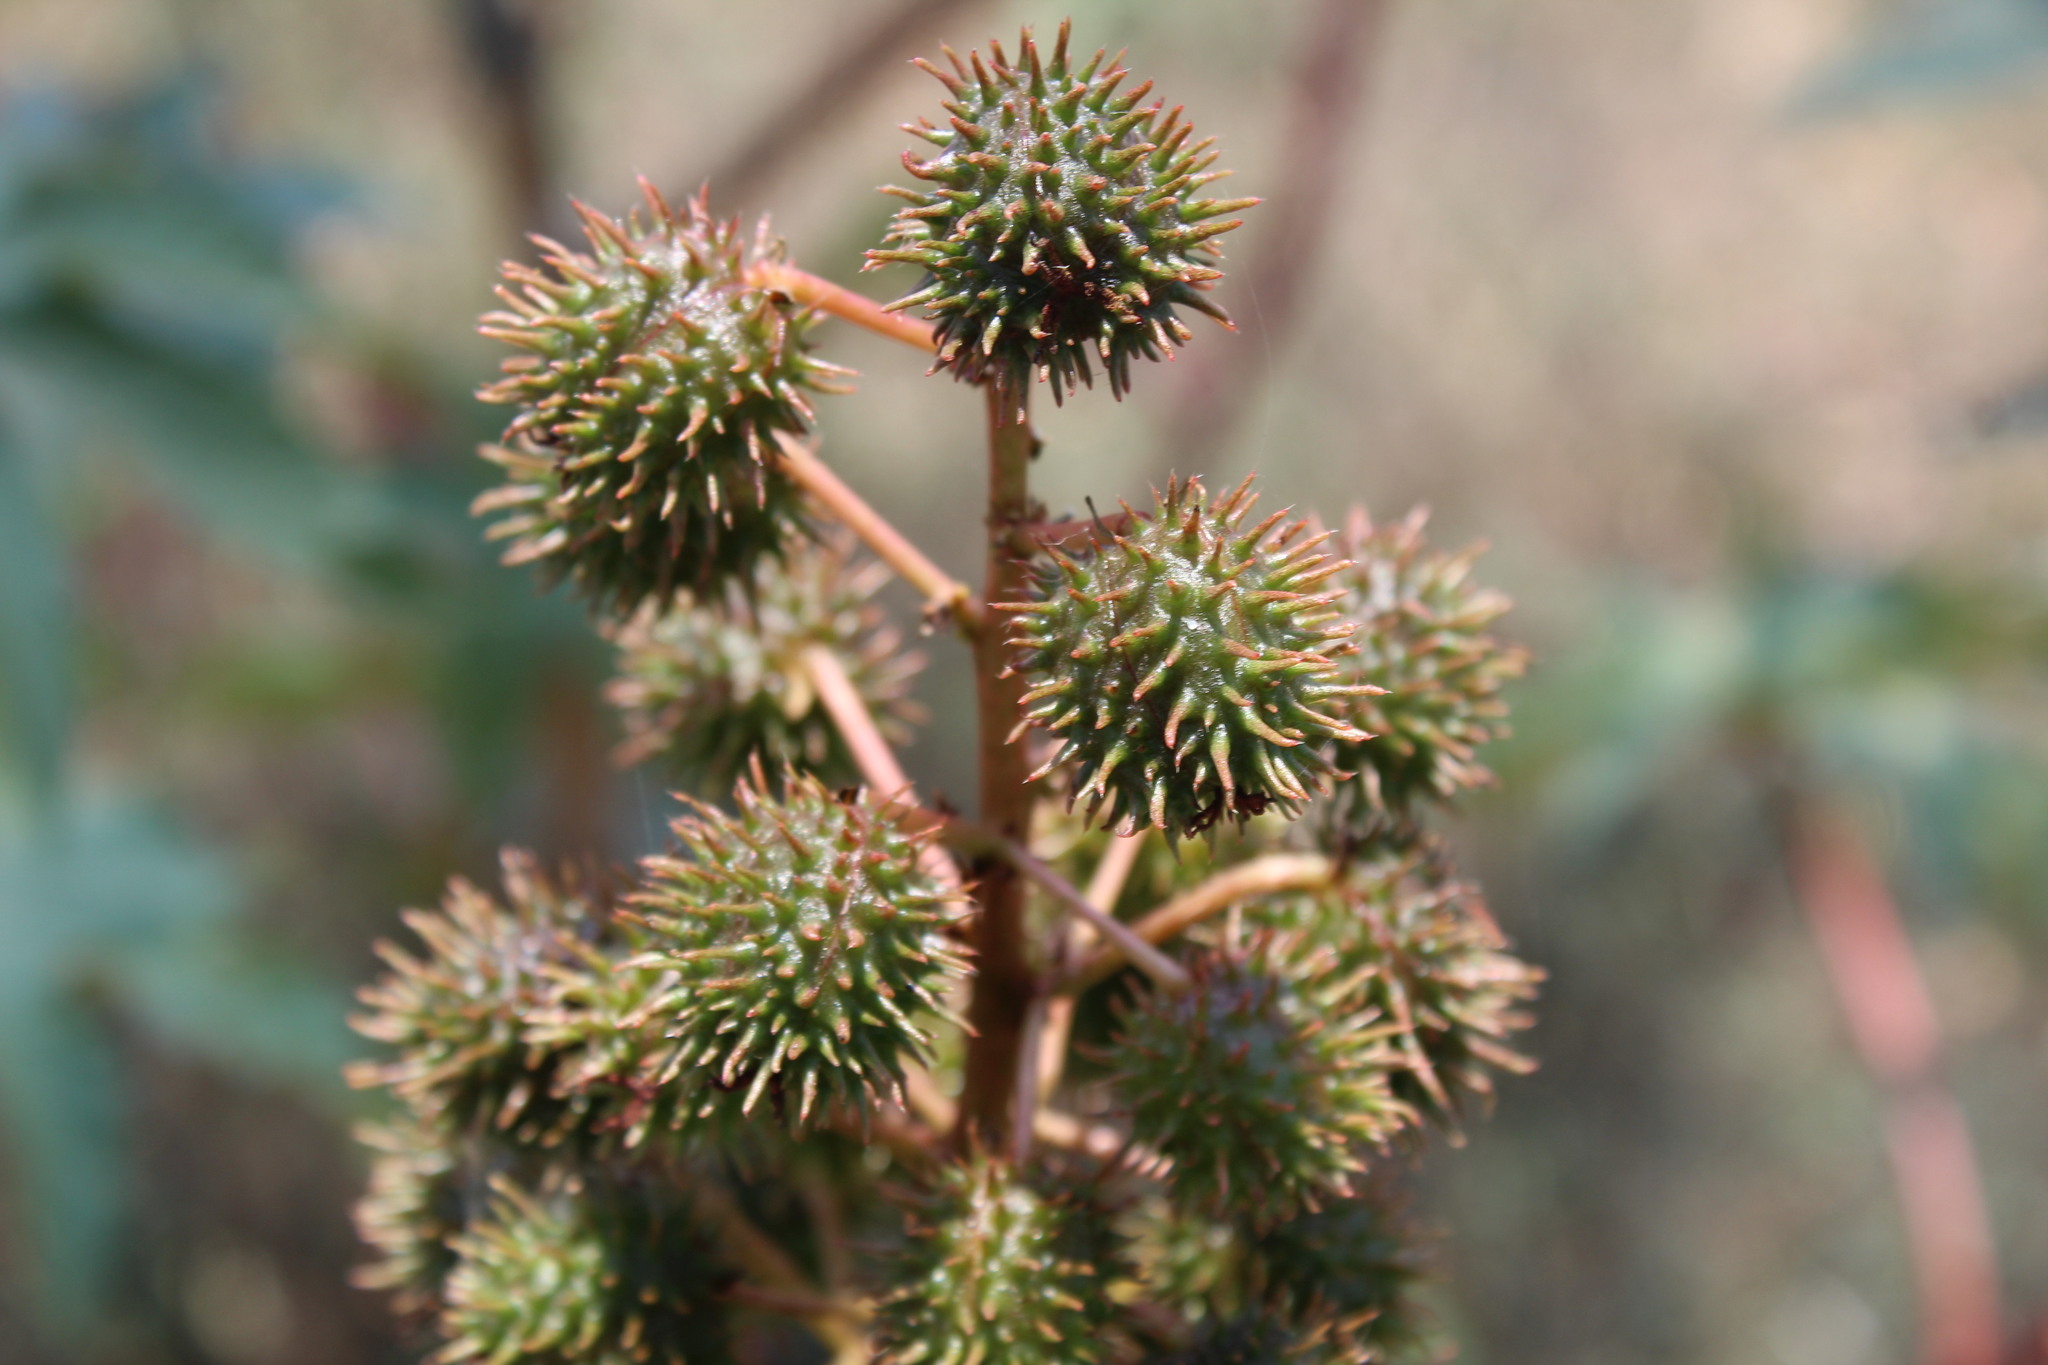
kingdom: Plantae
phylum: Tracheophyta
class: Magnoliopsida
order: Malpighiales
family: Euphorbiaceae
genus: Ricinus
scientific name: Ricinus communis
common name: Castor-oil-plant
